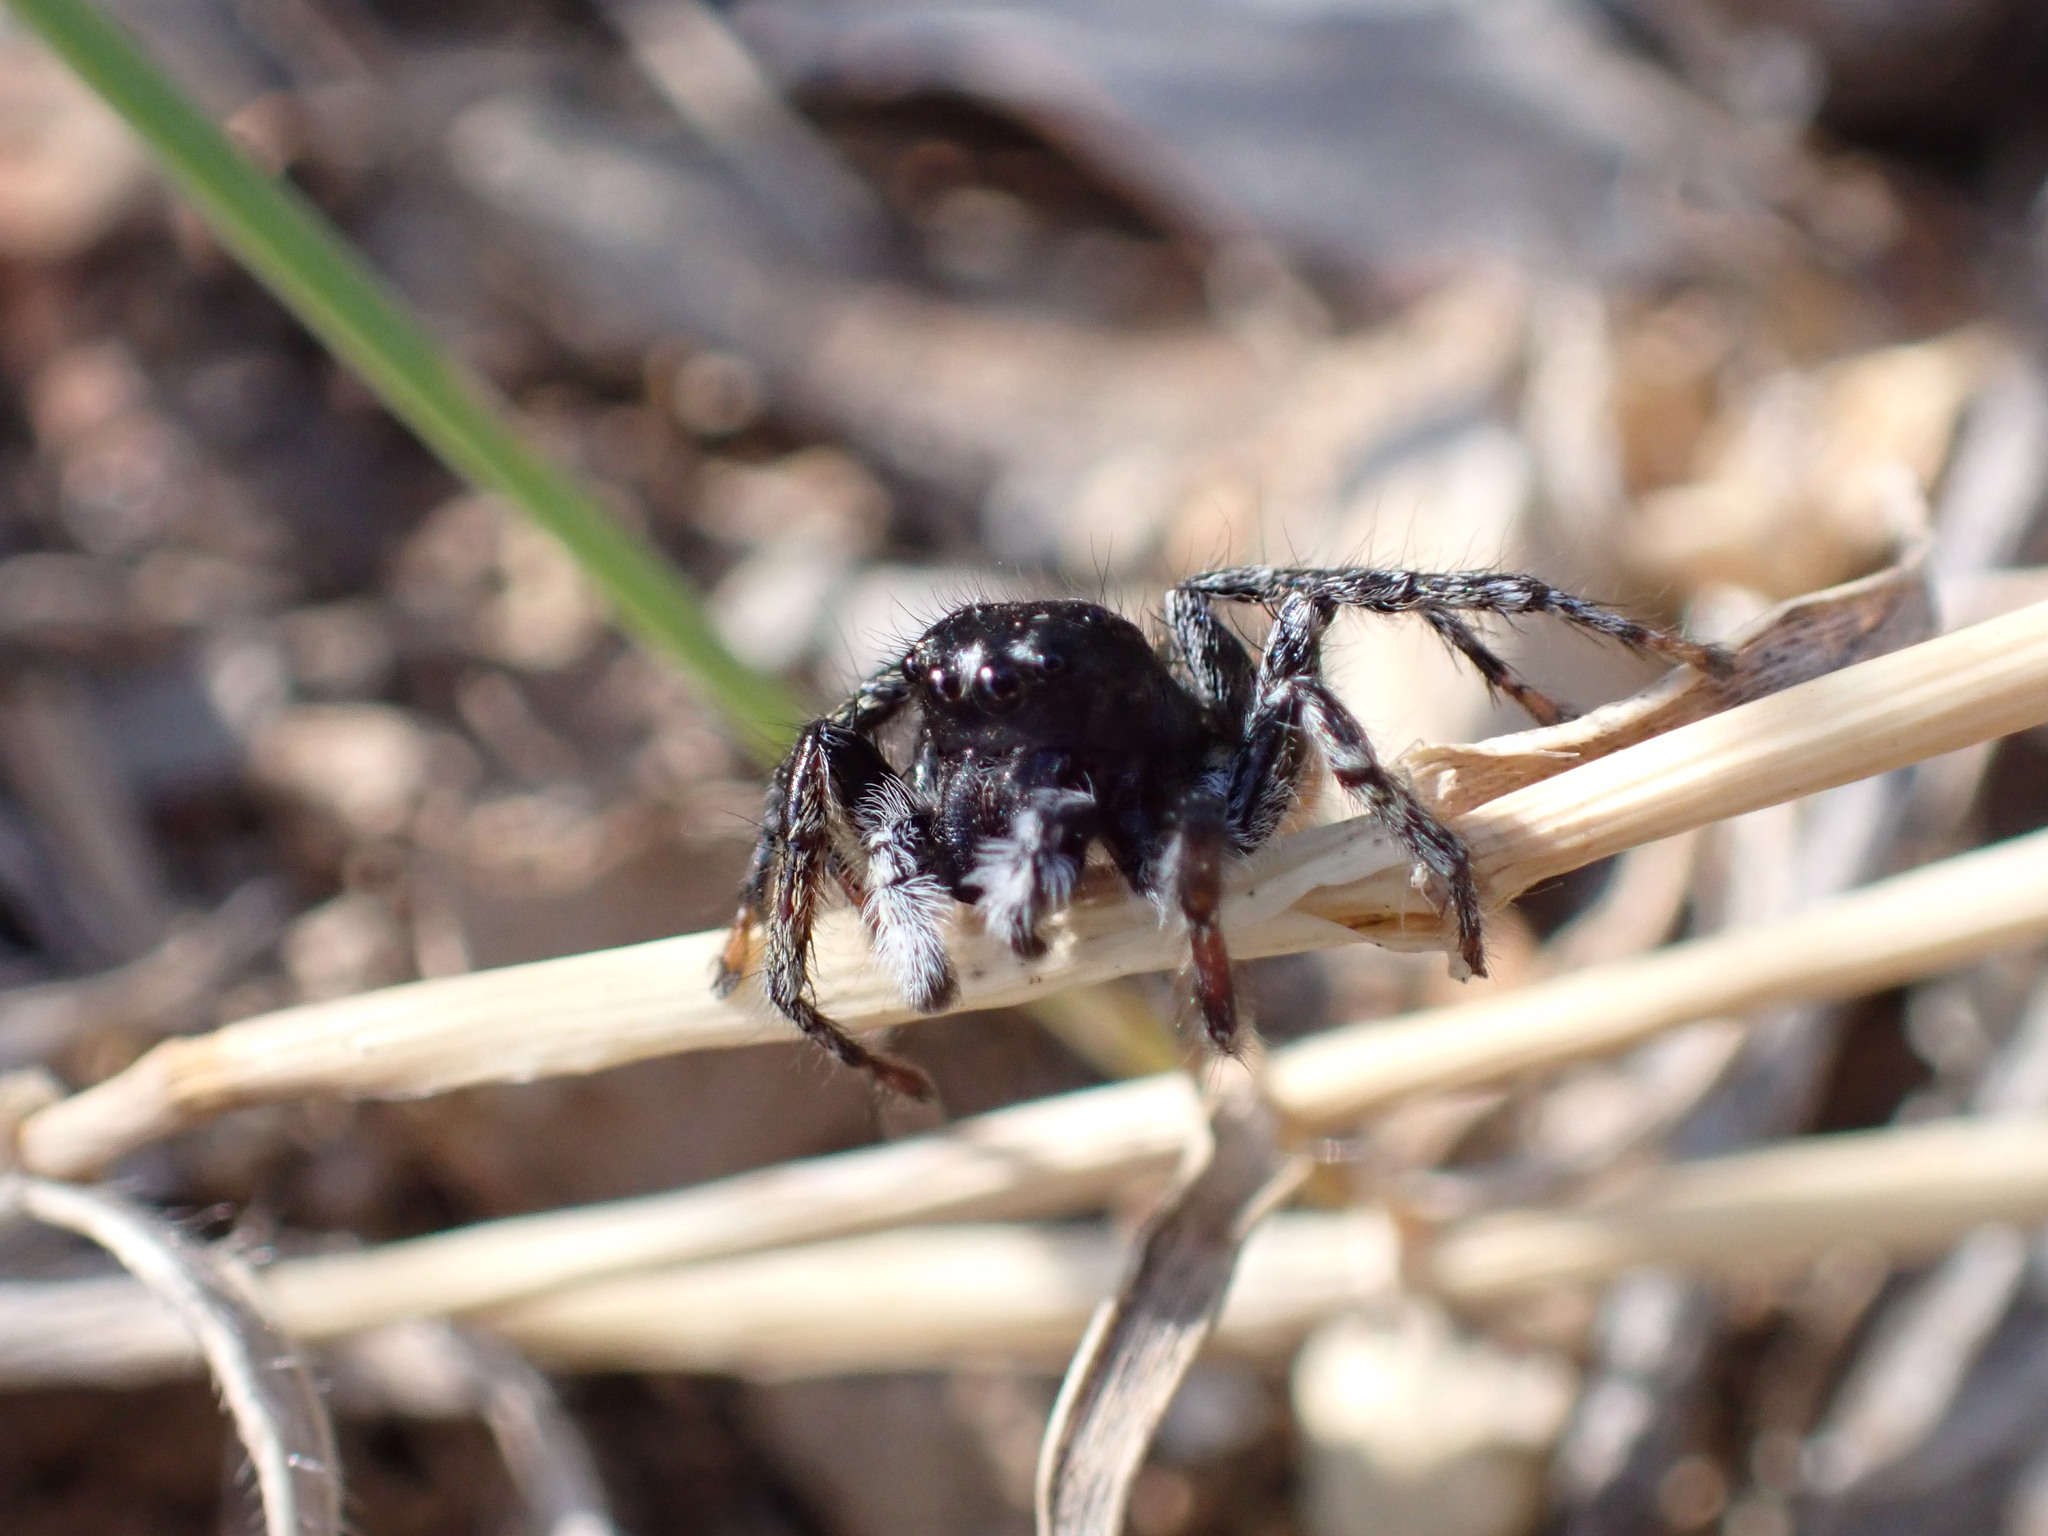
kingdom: Animalia
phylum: Arthropoda
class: Arachnida
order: Araneae
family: Salticidae
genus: Philaeus
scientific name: Philaeus chrysops
